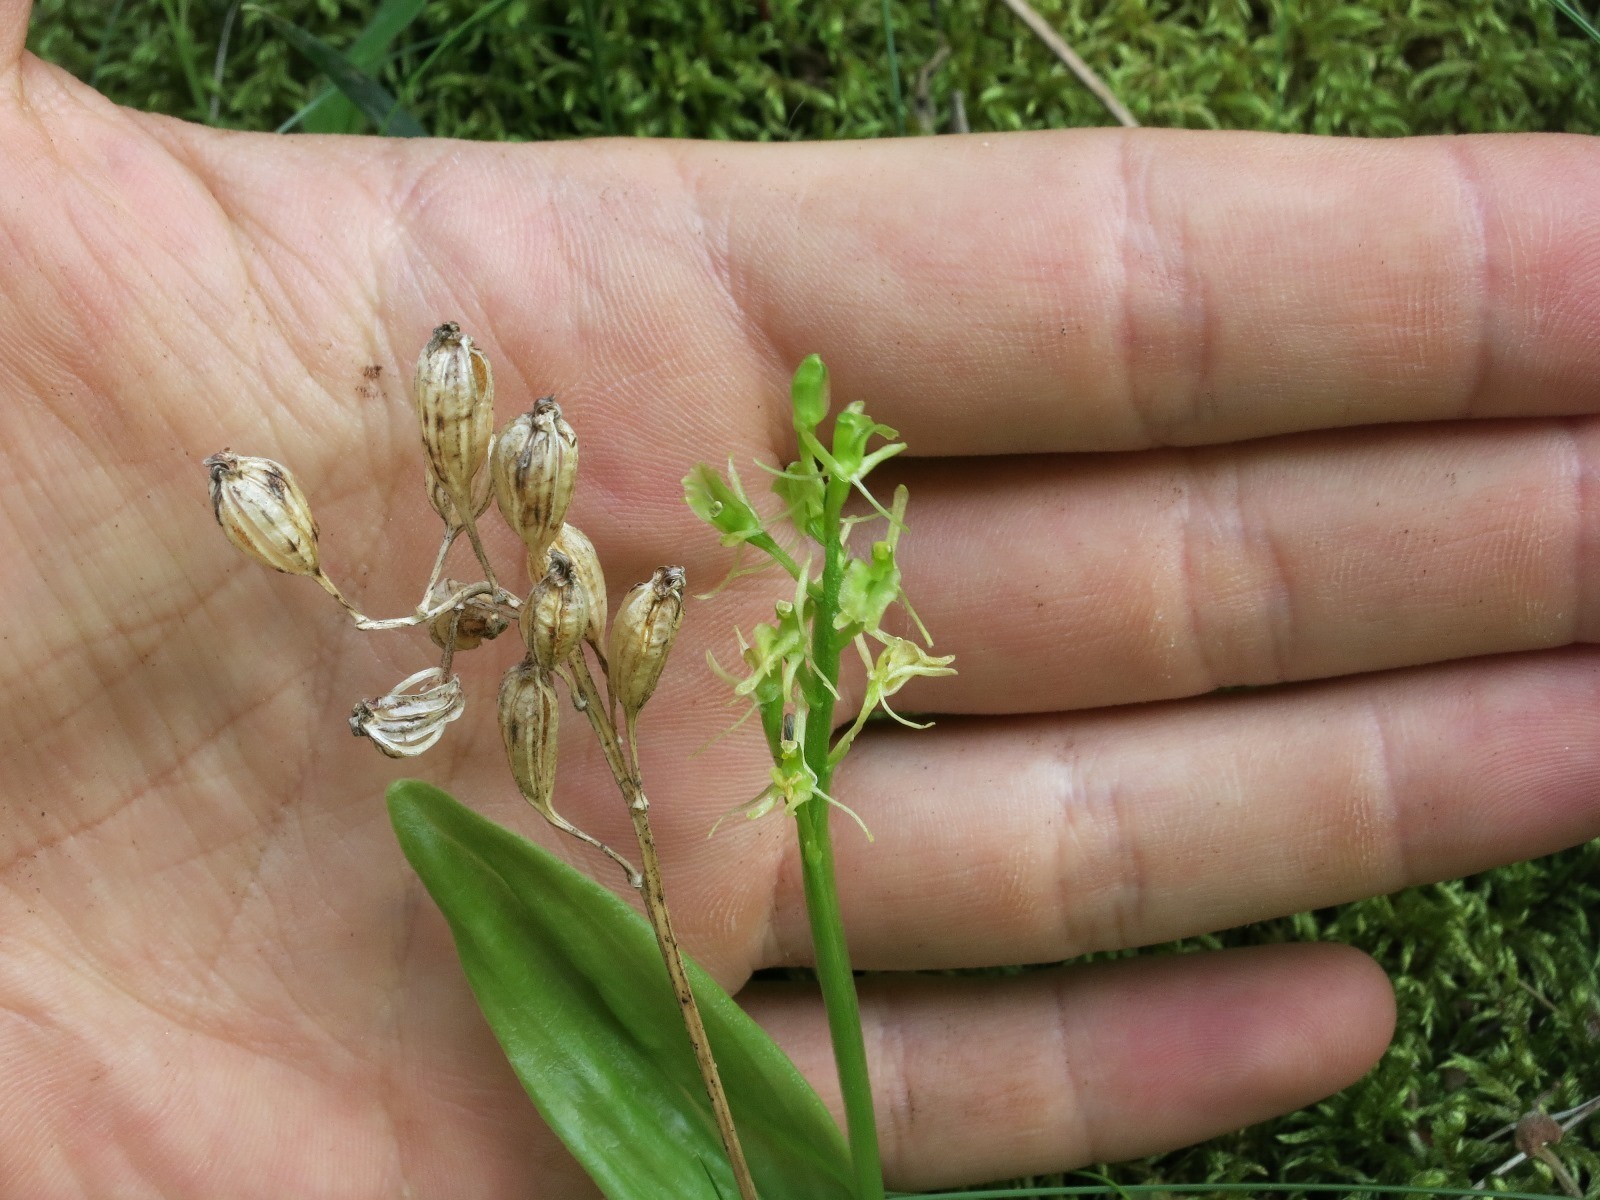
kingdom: Animalia
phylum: Arthropoda
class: Insecta
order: Coleoptera
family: Curculionidae
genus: Liparis
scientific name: Liparis loeselii
